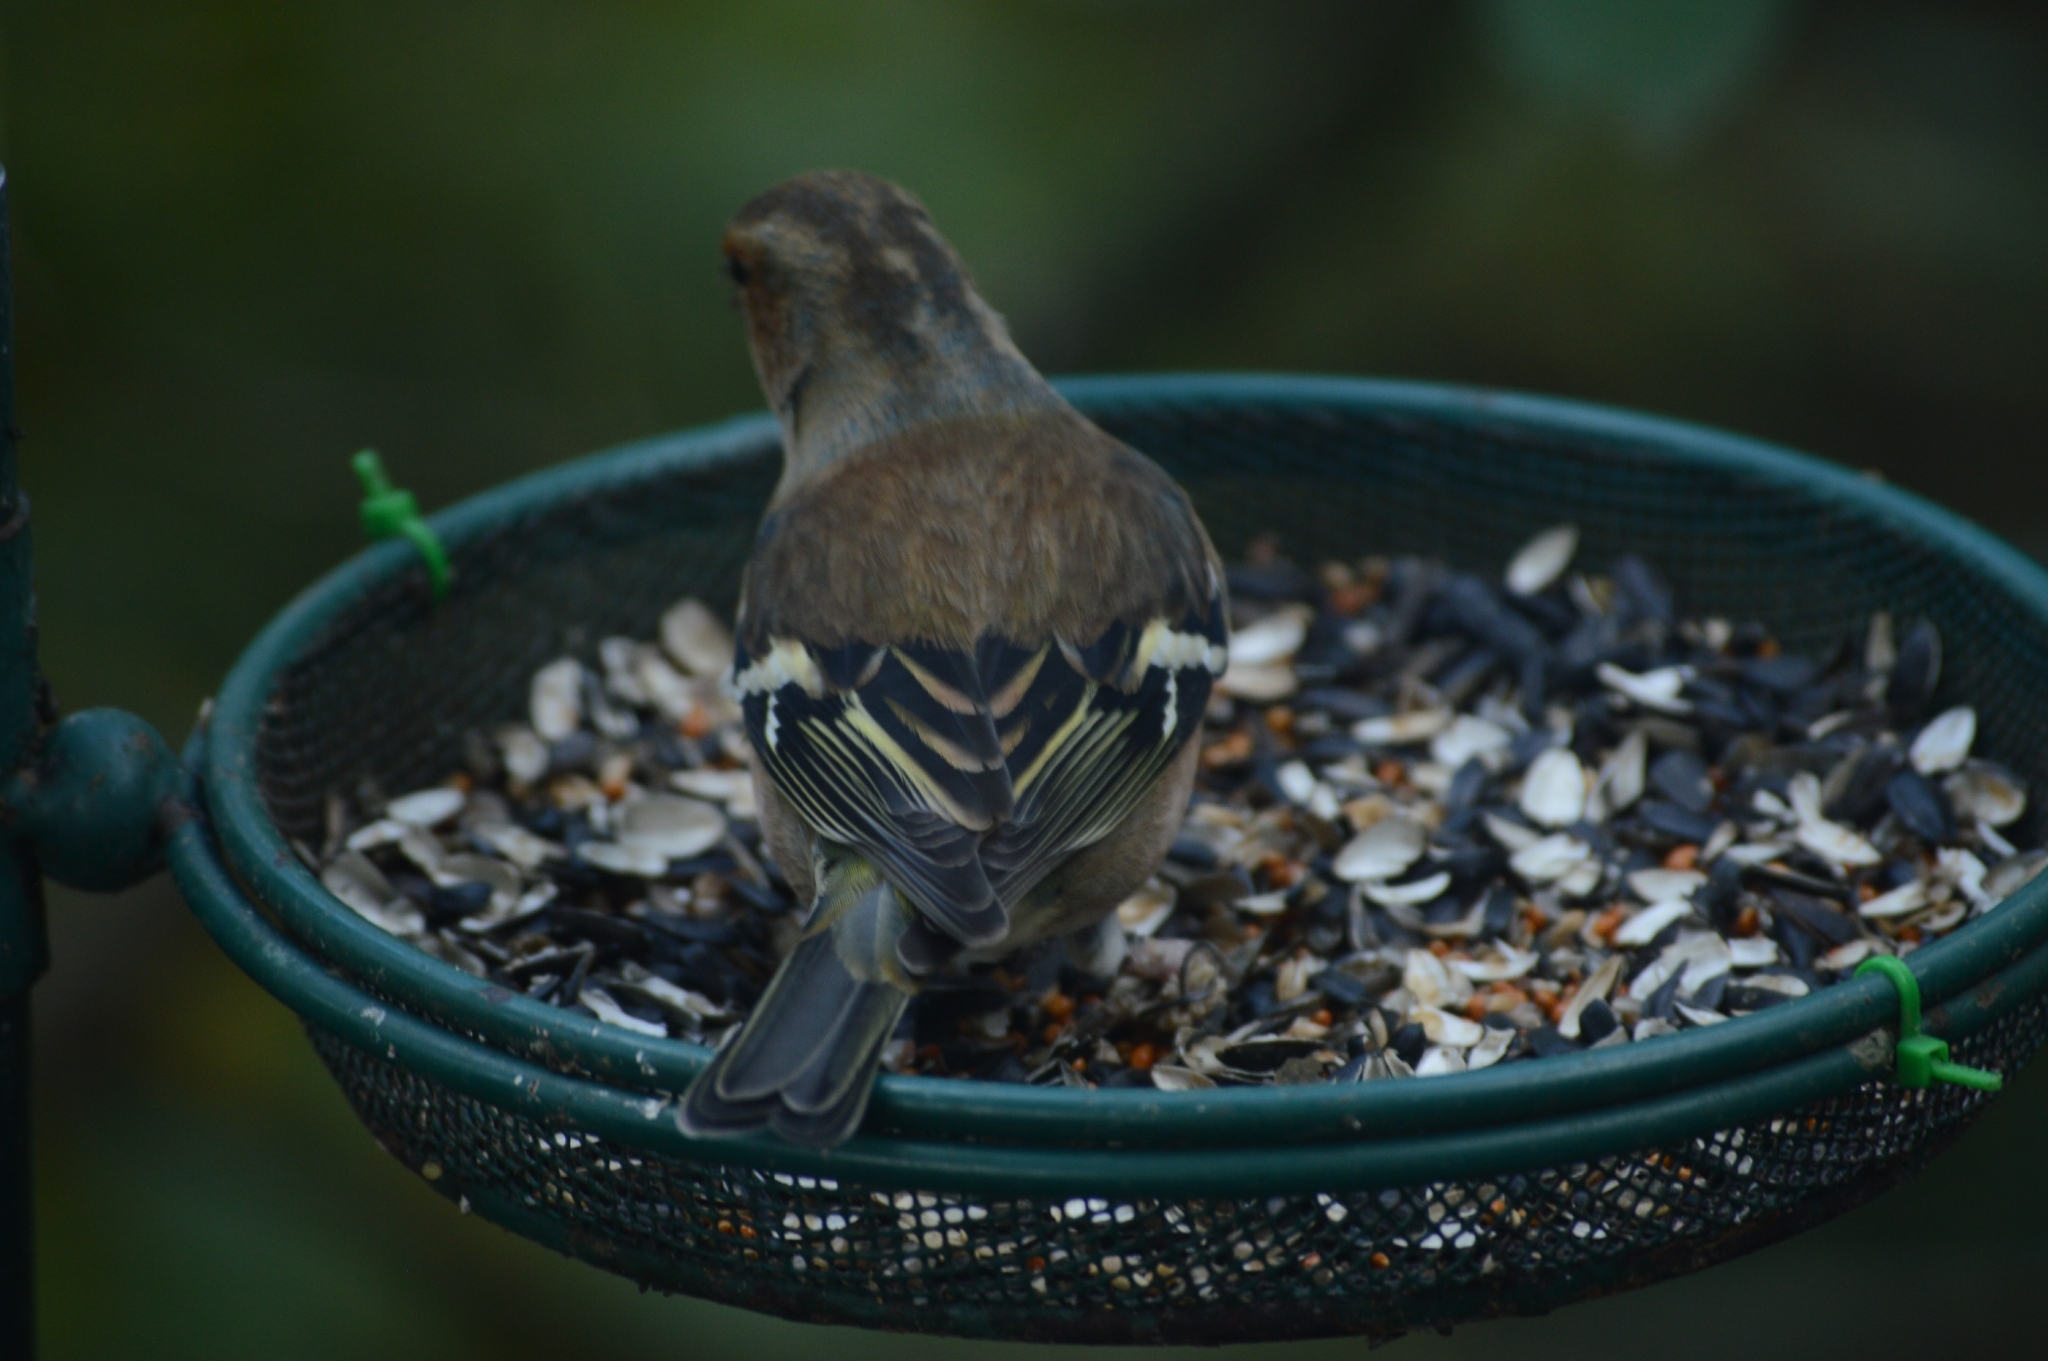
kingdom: Animalia
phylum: Chordata
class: Aves
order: Passeriformes
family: Fringillidae
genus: Fringilla
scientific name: Fringilla coelebs
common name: Common chaffinch
